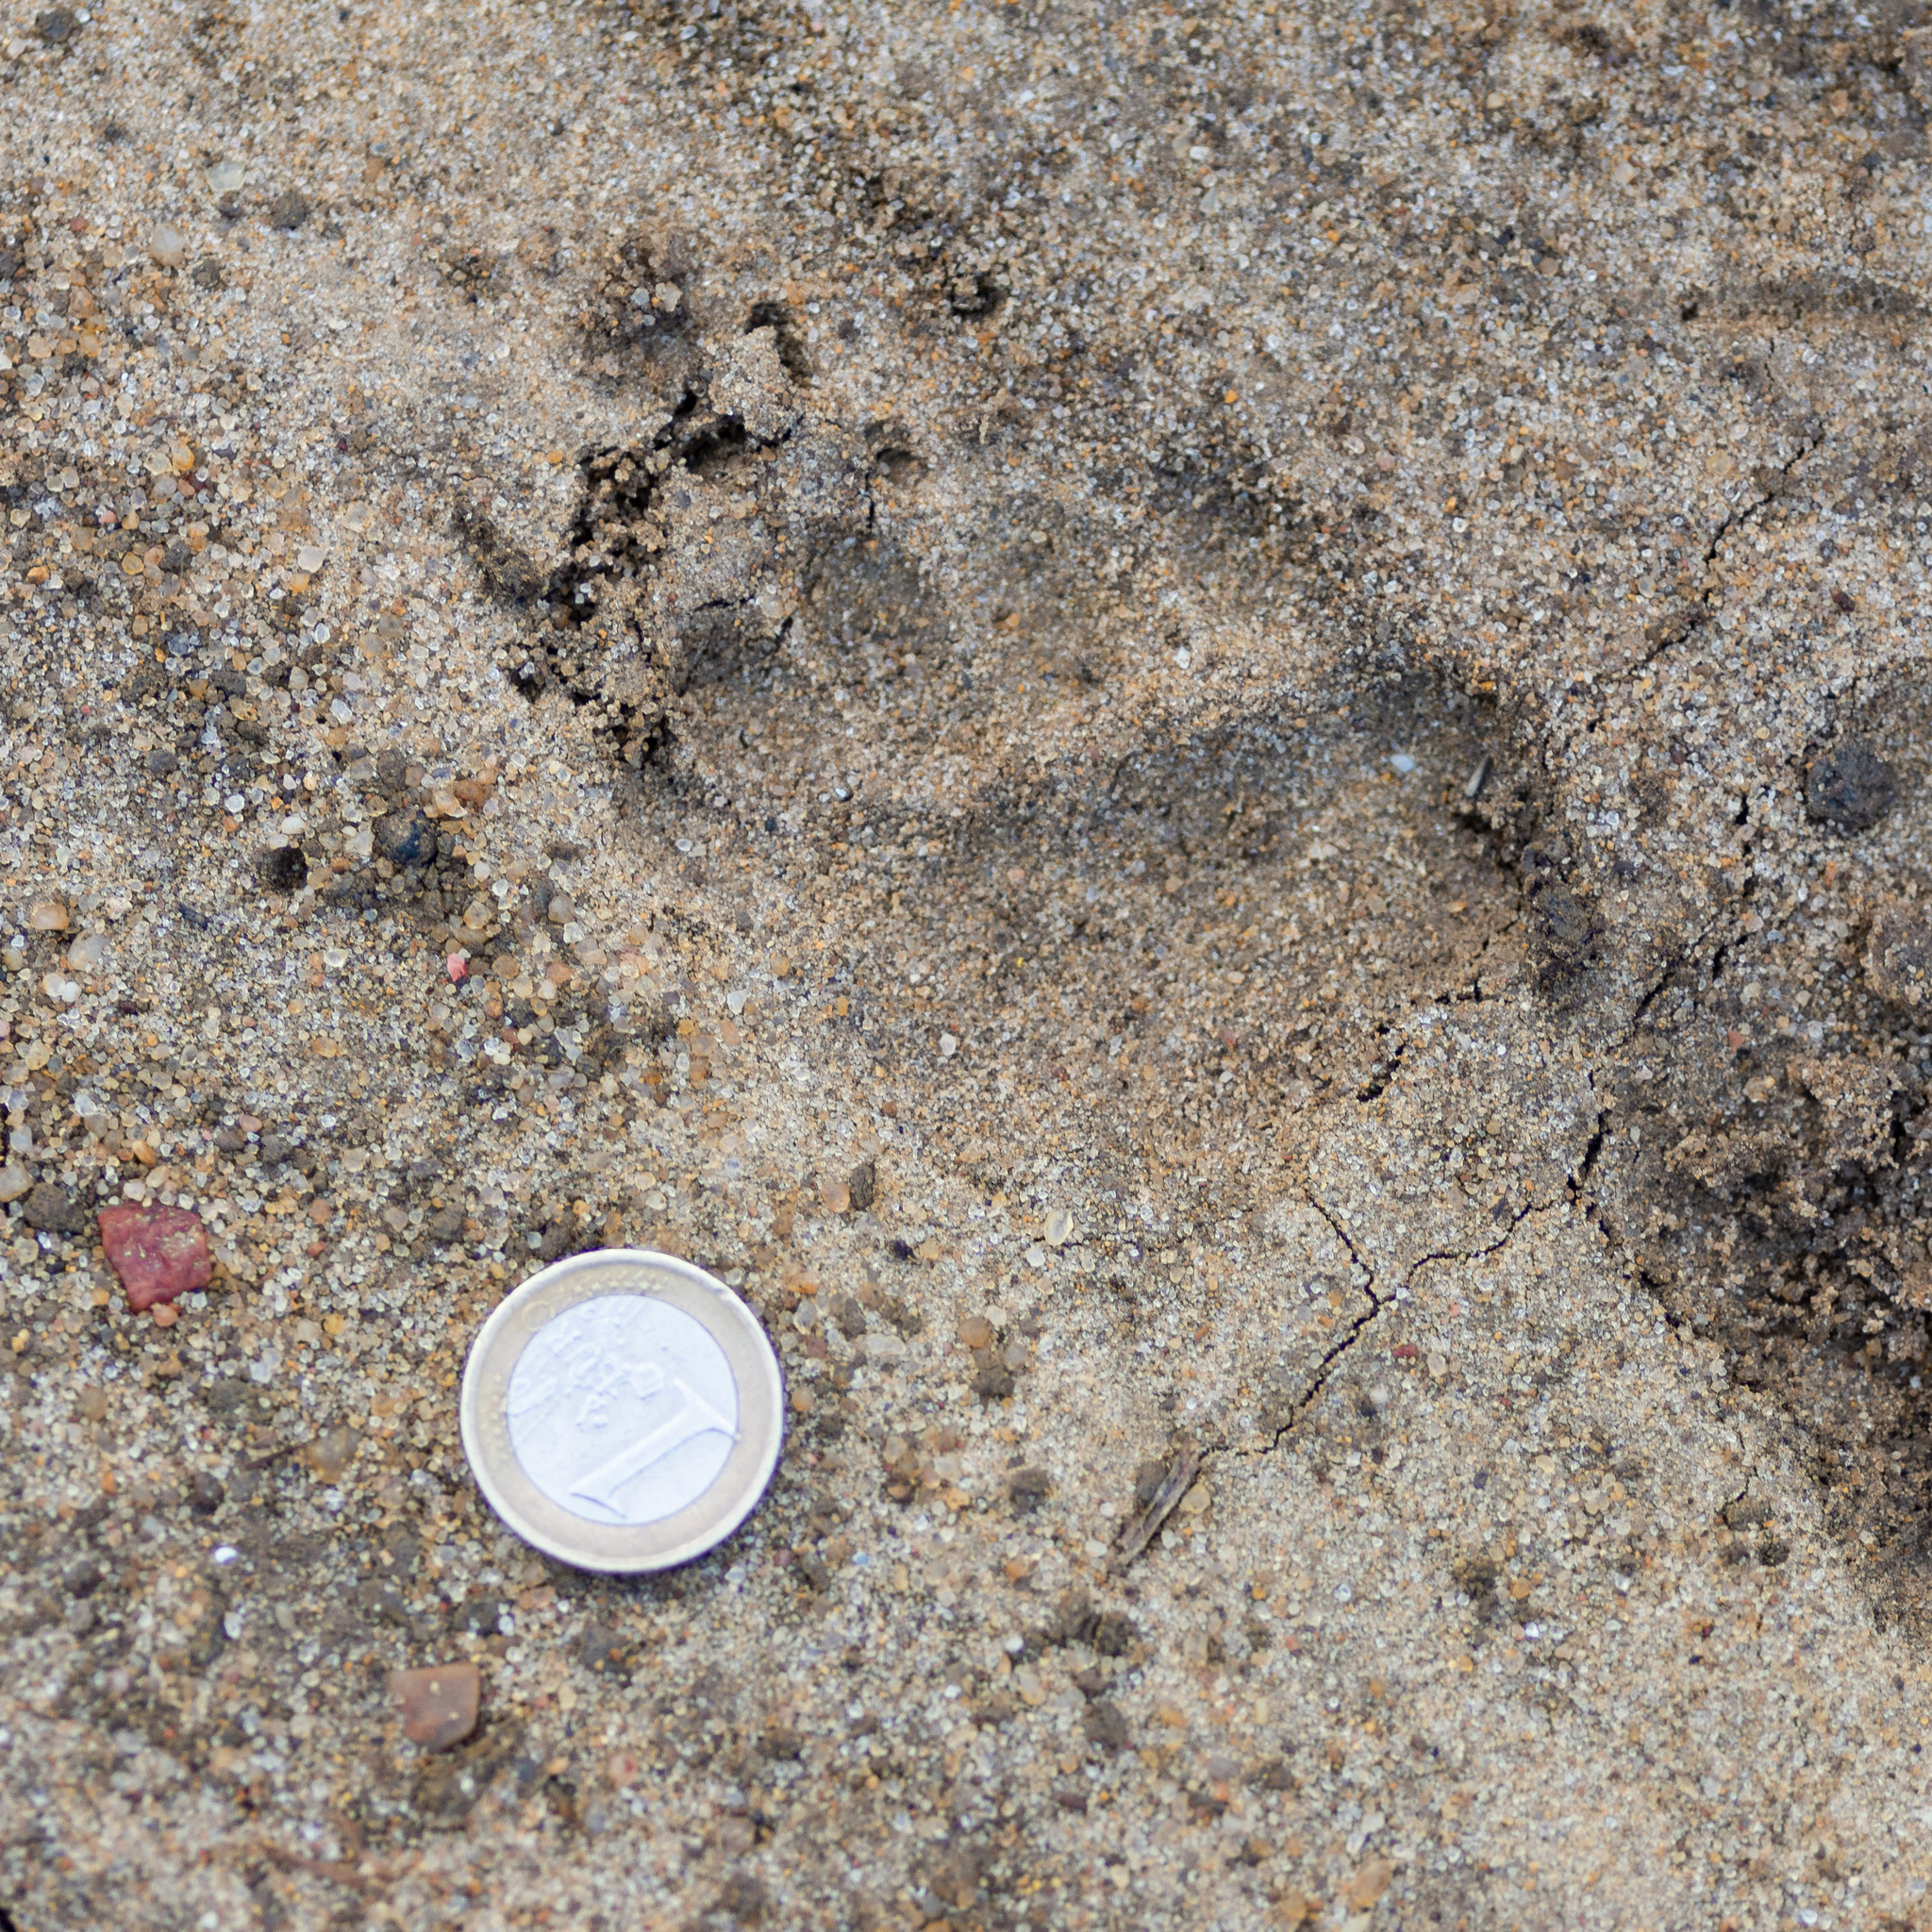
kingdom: Animalia
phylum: Chordata
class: Mammalia
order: Carnivora
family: Mustelidae
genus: Meles
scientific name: Meles meles
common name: Eurasian badger
